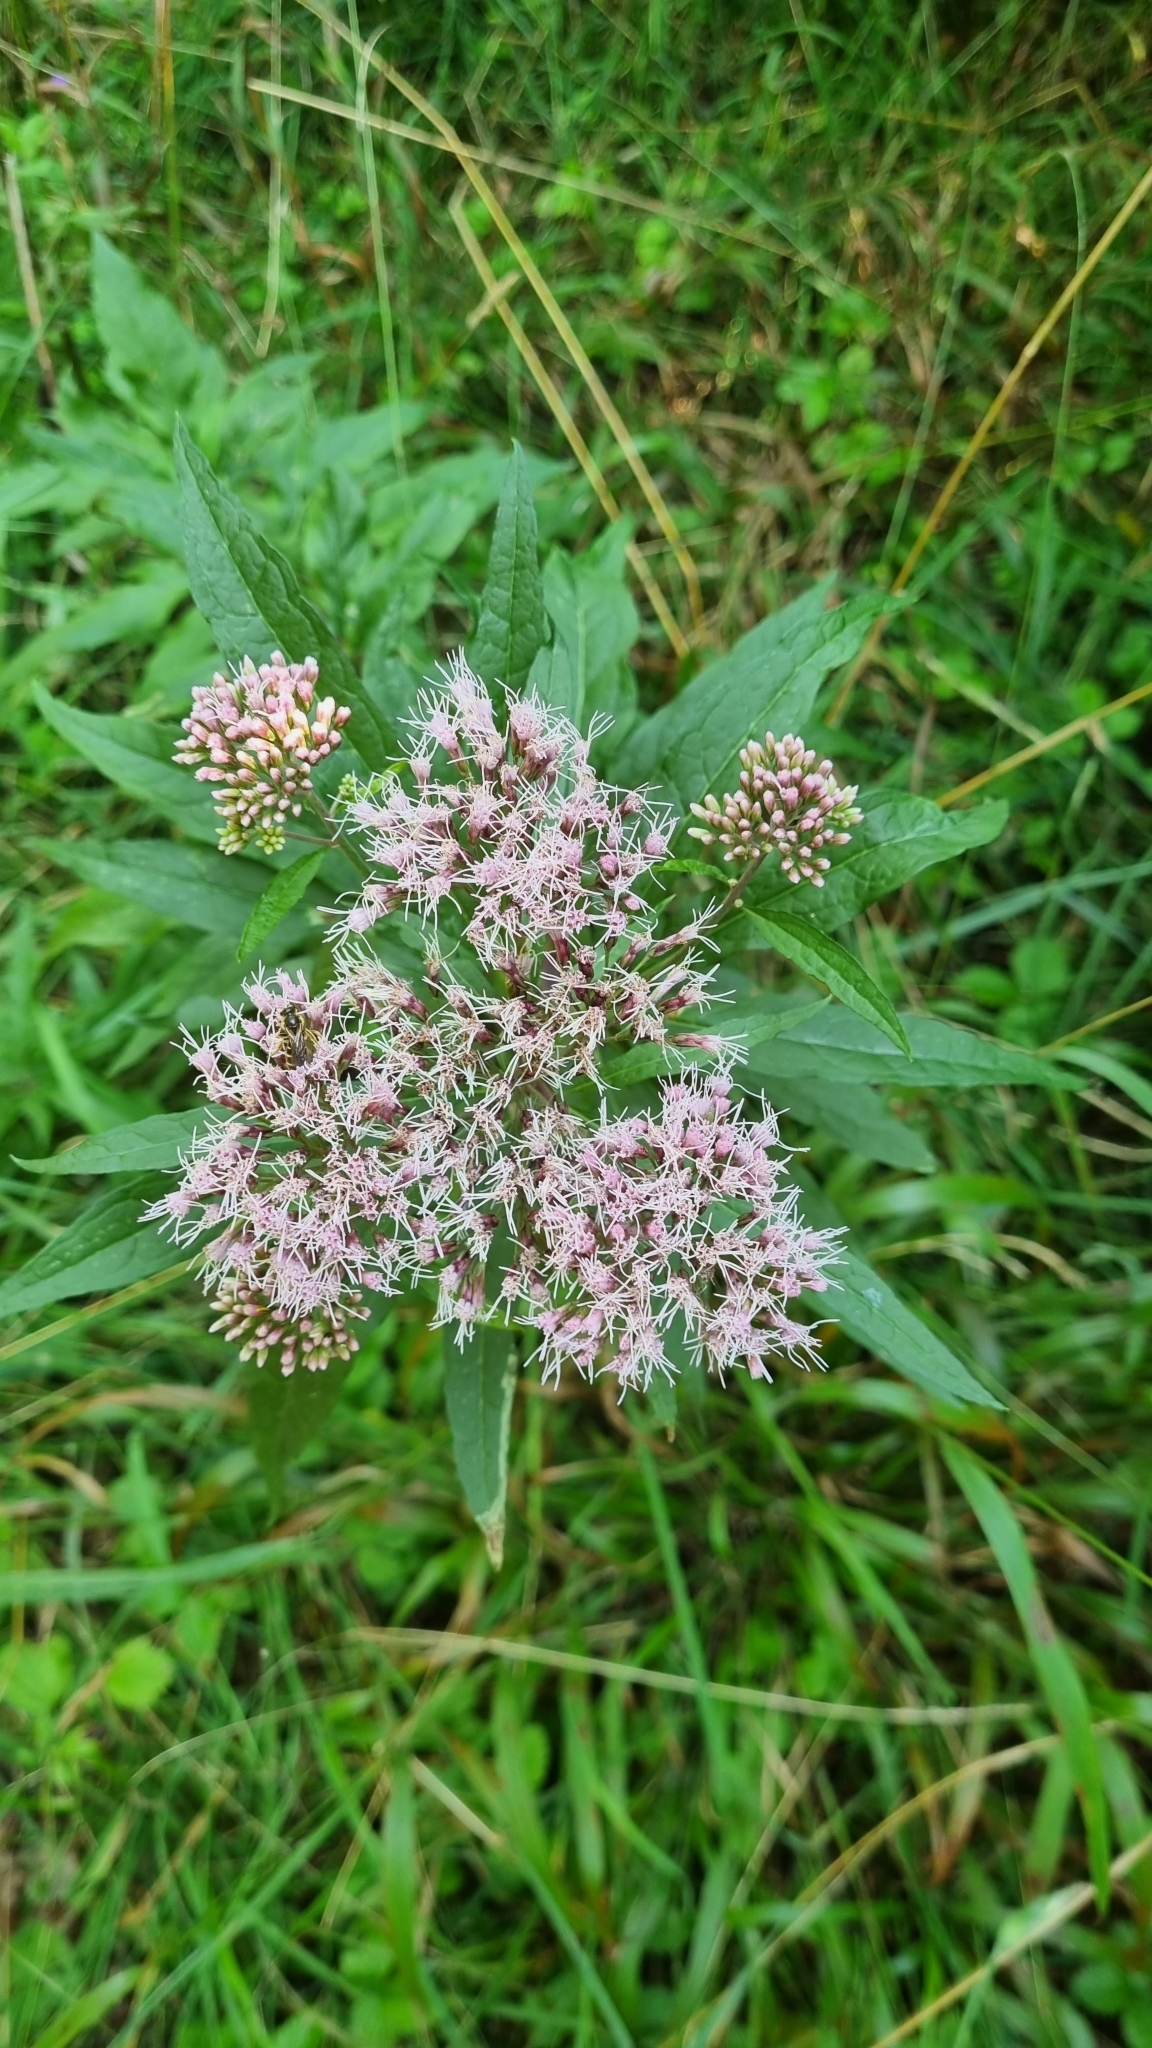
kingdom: Plantae
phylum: Tracheophyta
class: Magnoliopsida
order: Asterales
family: Asteraceae
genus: Eupatorium
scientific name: Eupatorium cannabinum
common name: Hemp-agrimony
